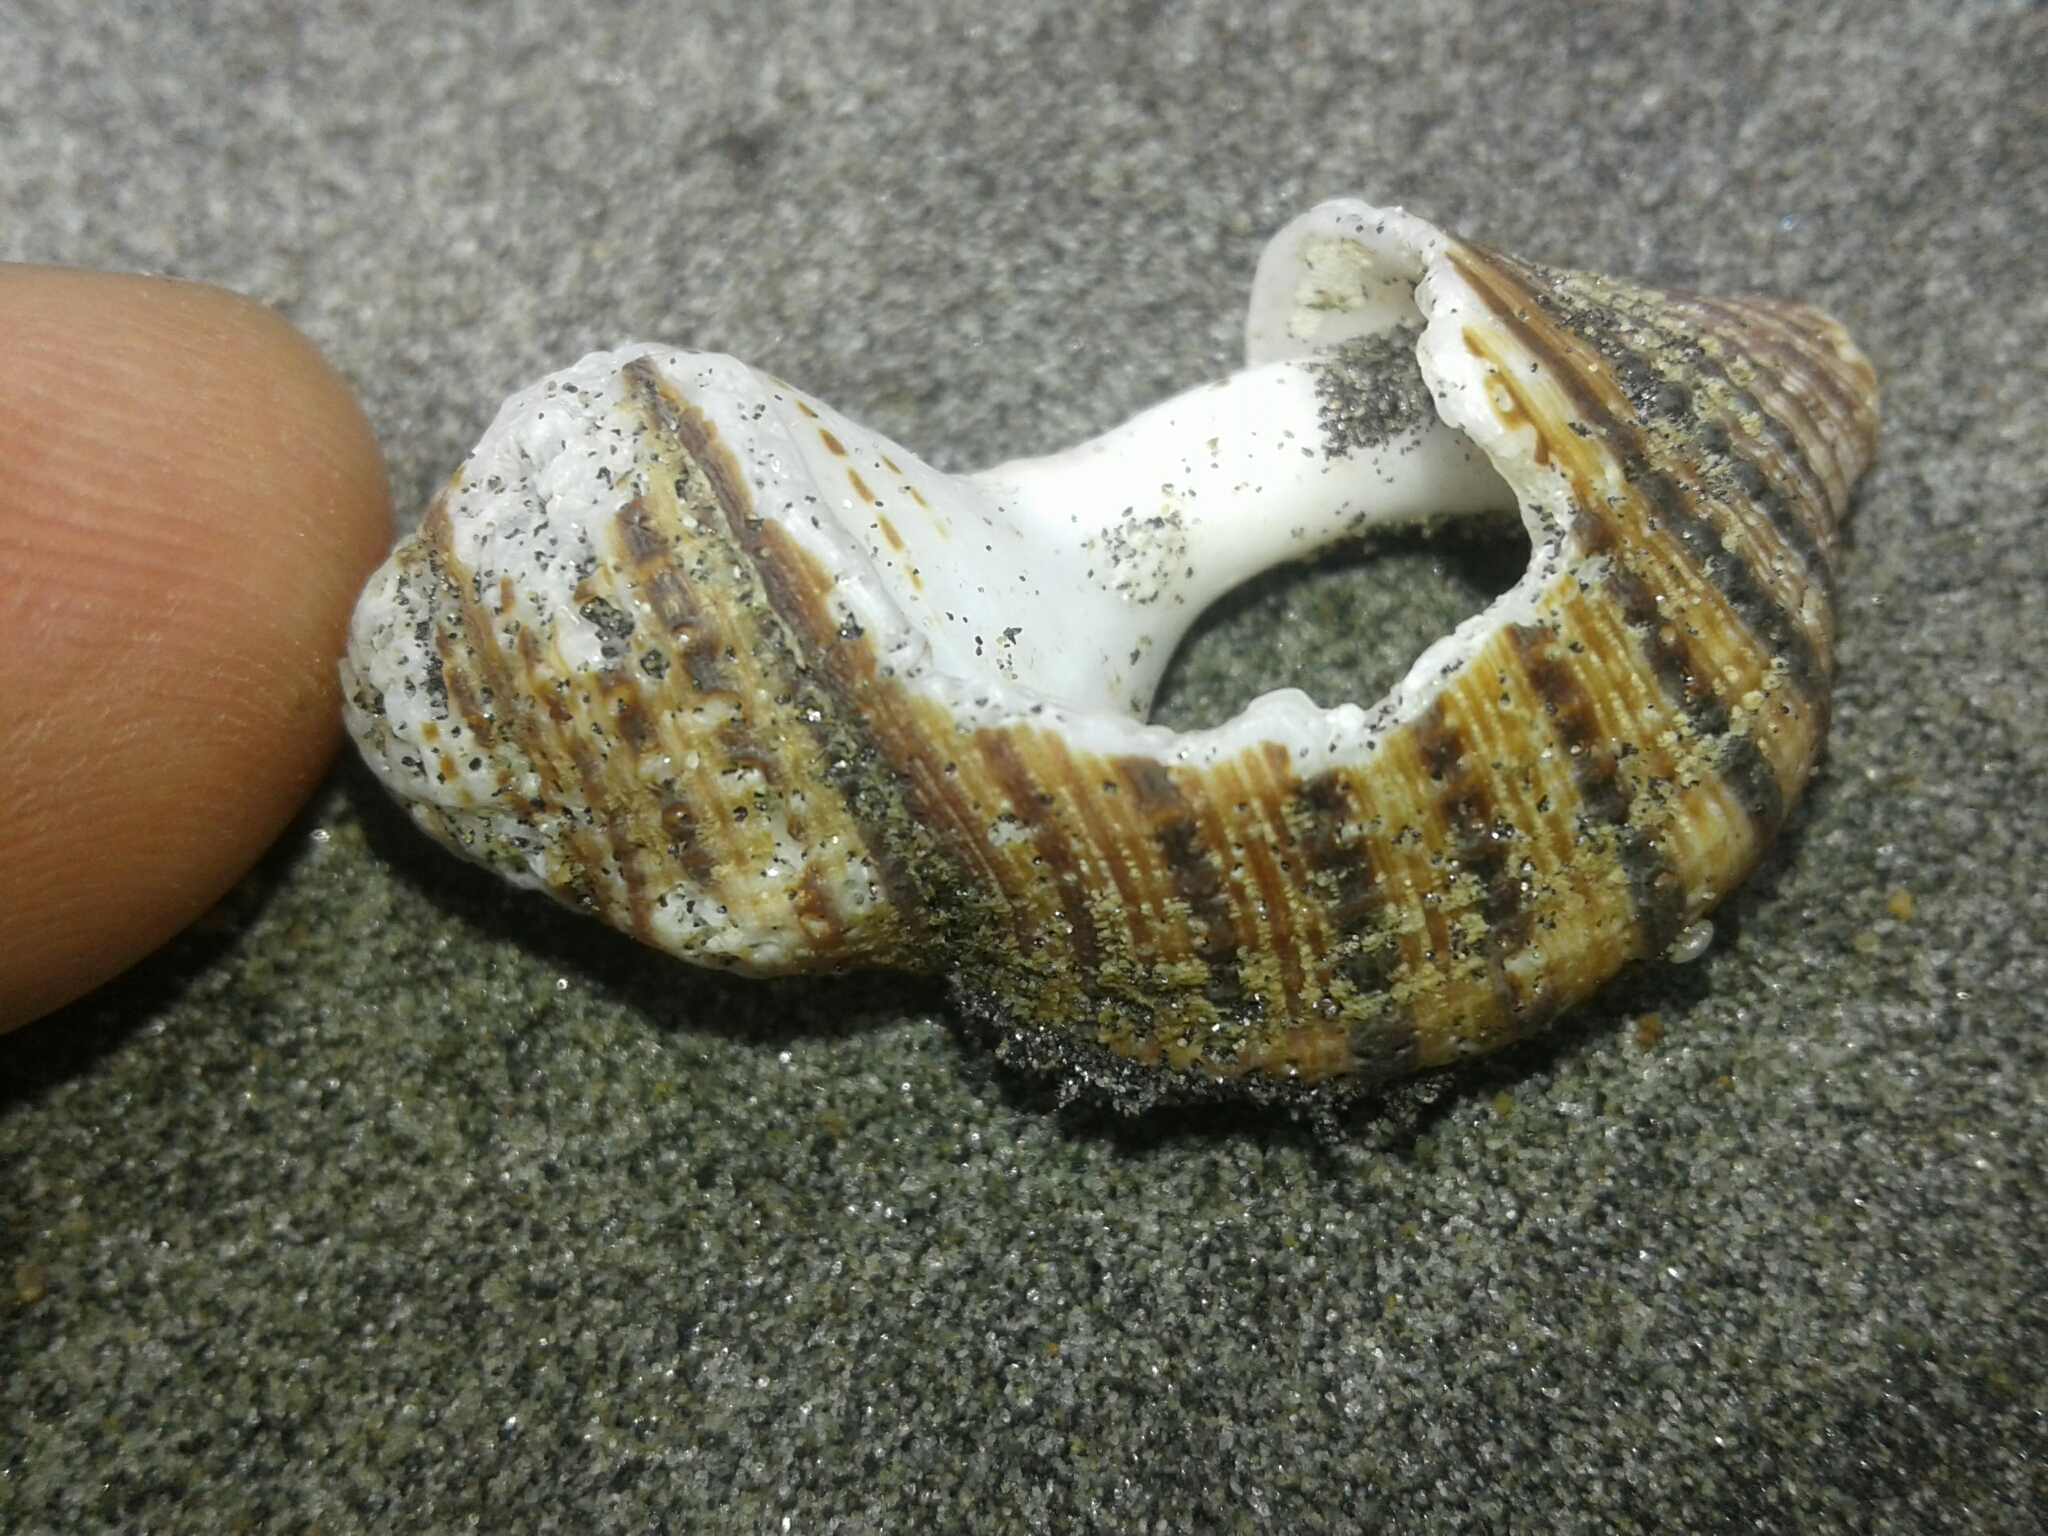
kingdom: Animalia
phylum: Mollusca
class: Gastropoda
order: Littorinimorpha
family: Cymatiidae
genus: Argobuccinum
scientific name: Argobuccinum pustulosum
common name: Pustular triton
